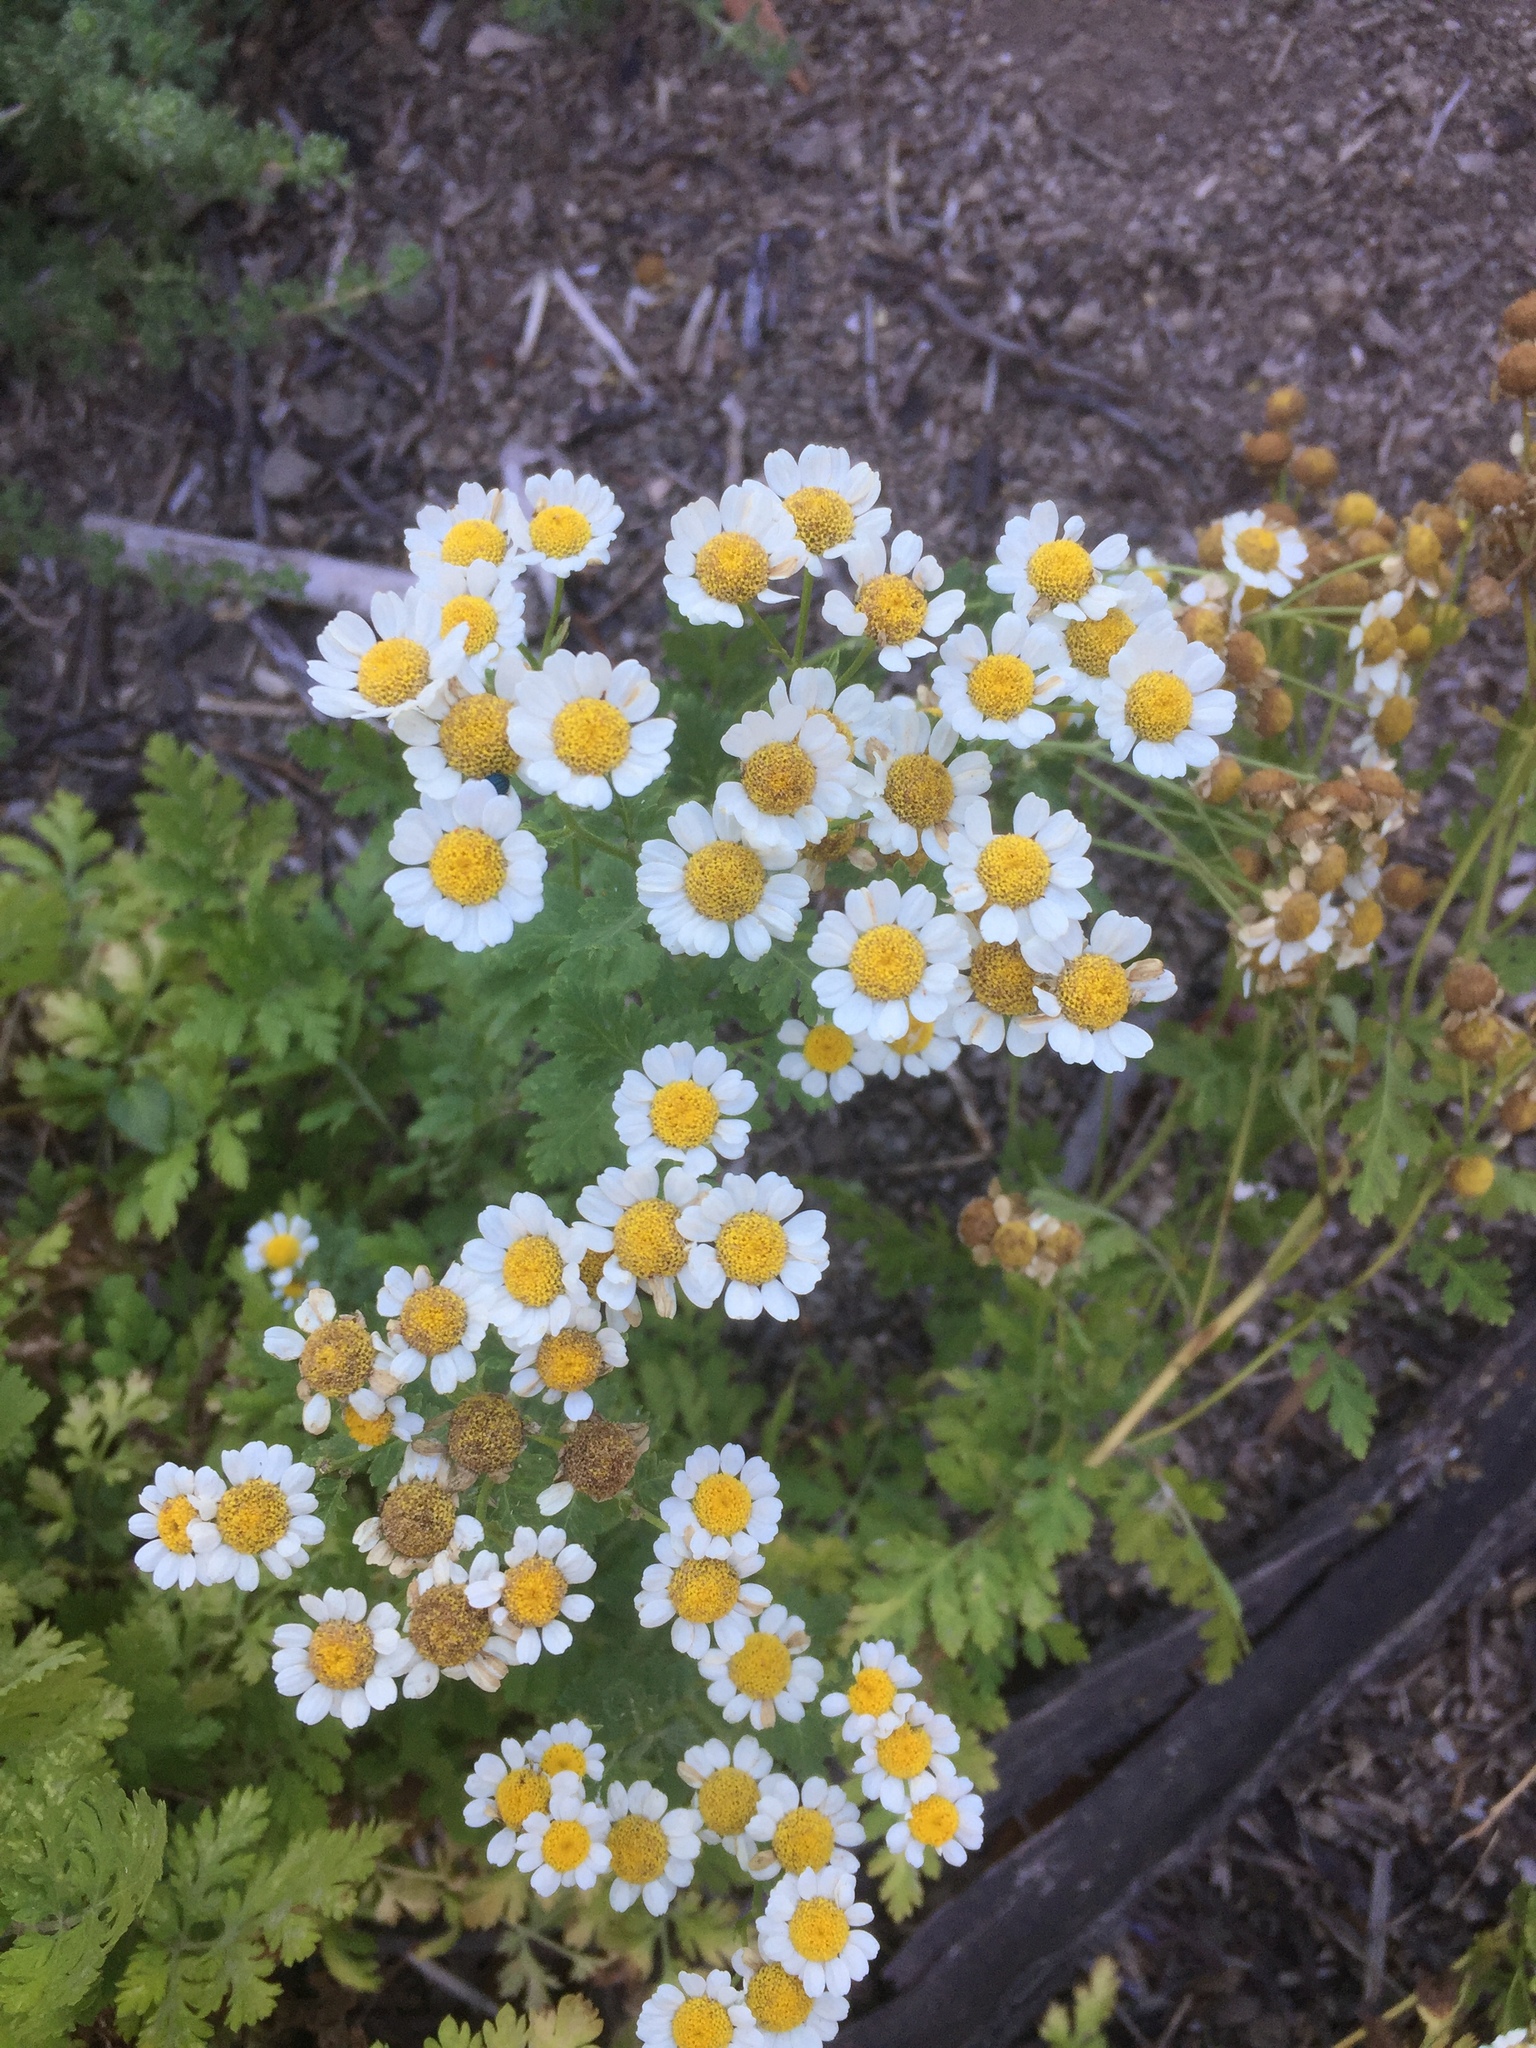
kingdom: Plantae
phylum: Tracheophyta
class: Magnoliopsida
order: Asterales
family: Asteraceae
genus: Tanacetum
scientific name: Tanacetum parthenium
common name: Feverfew
